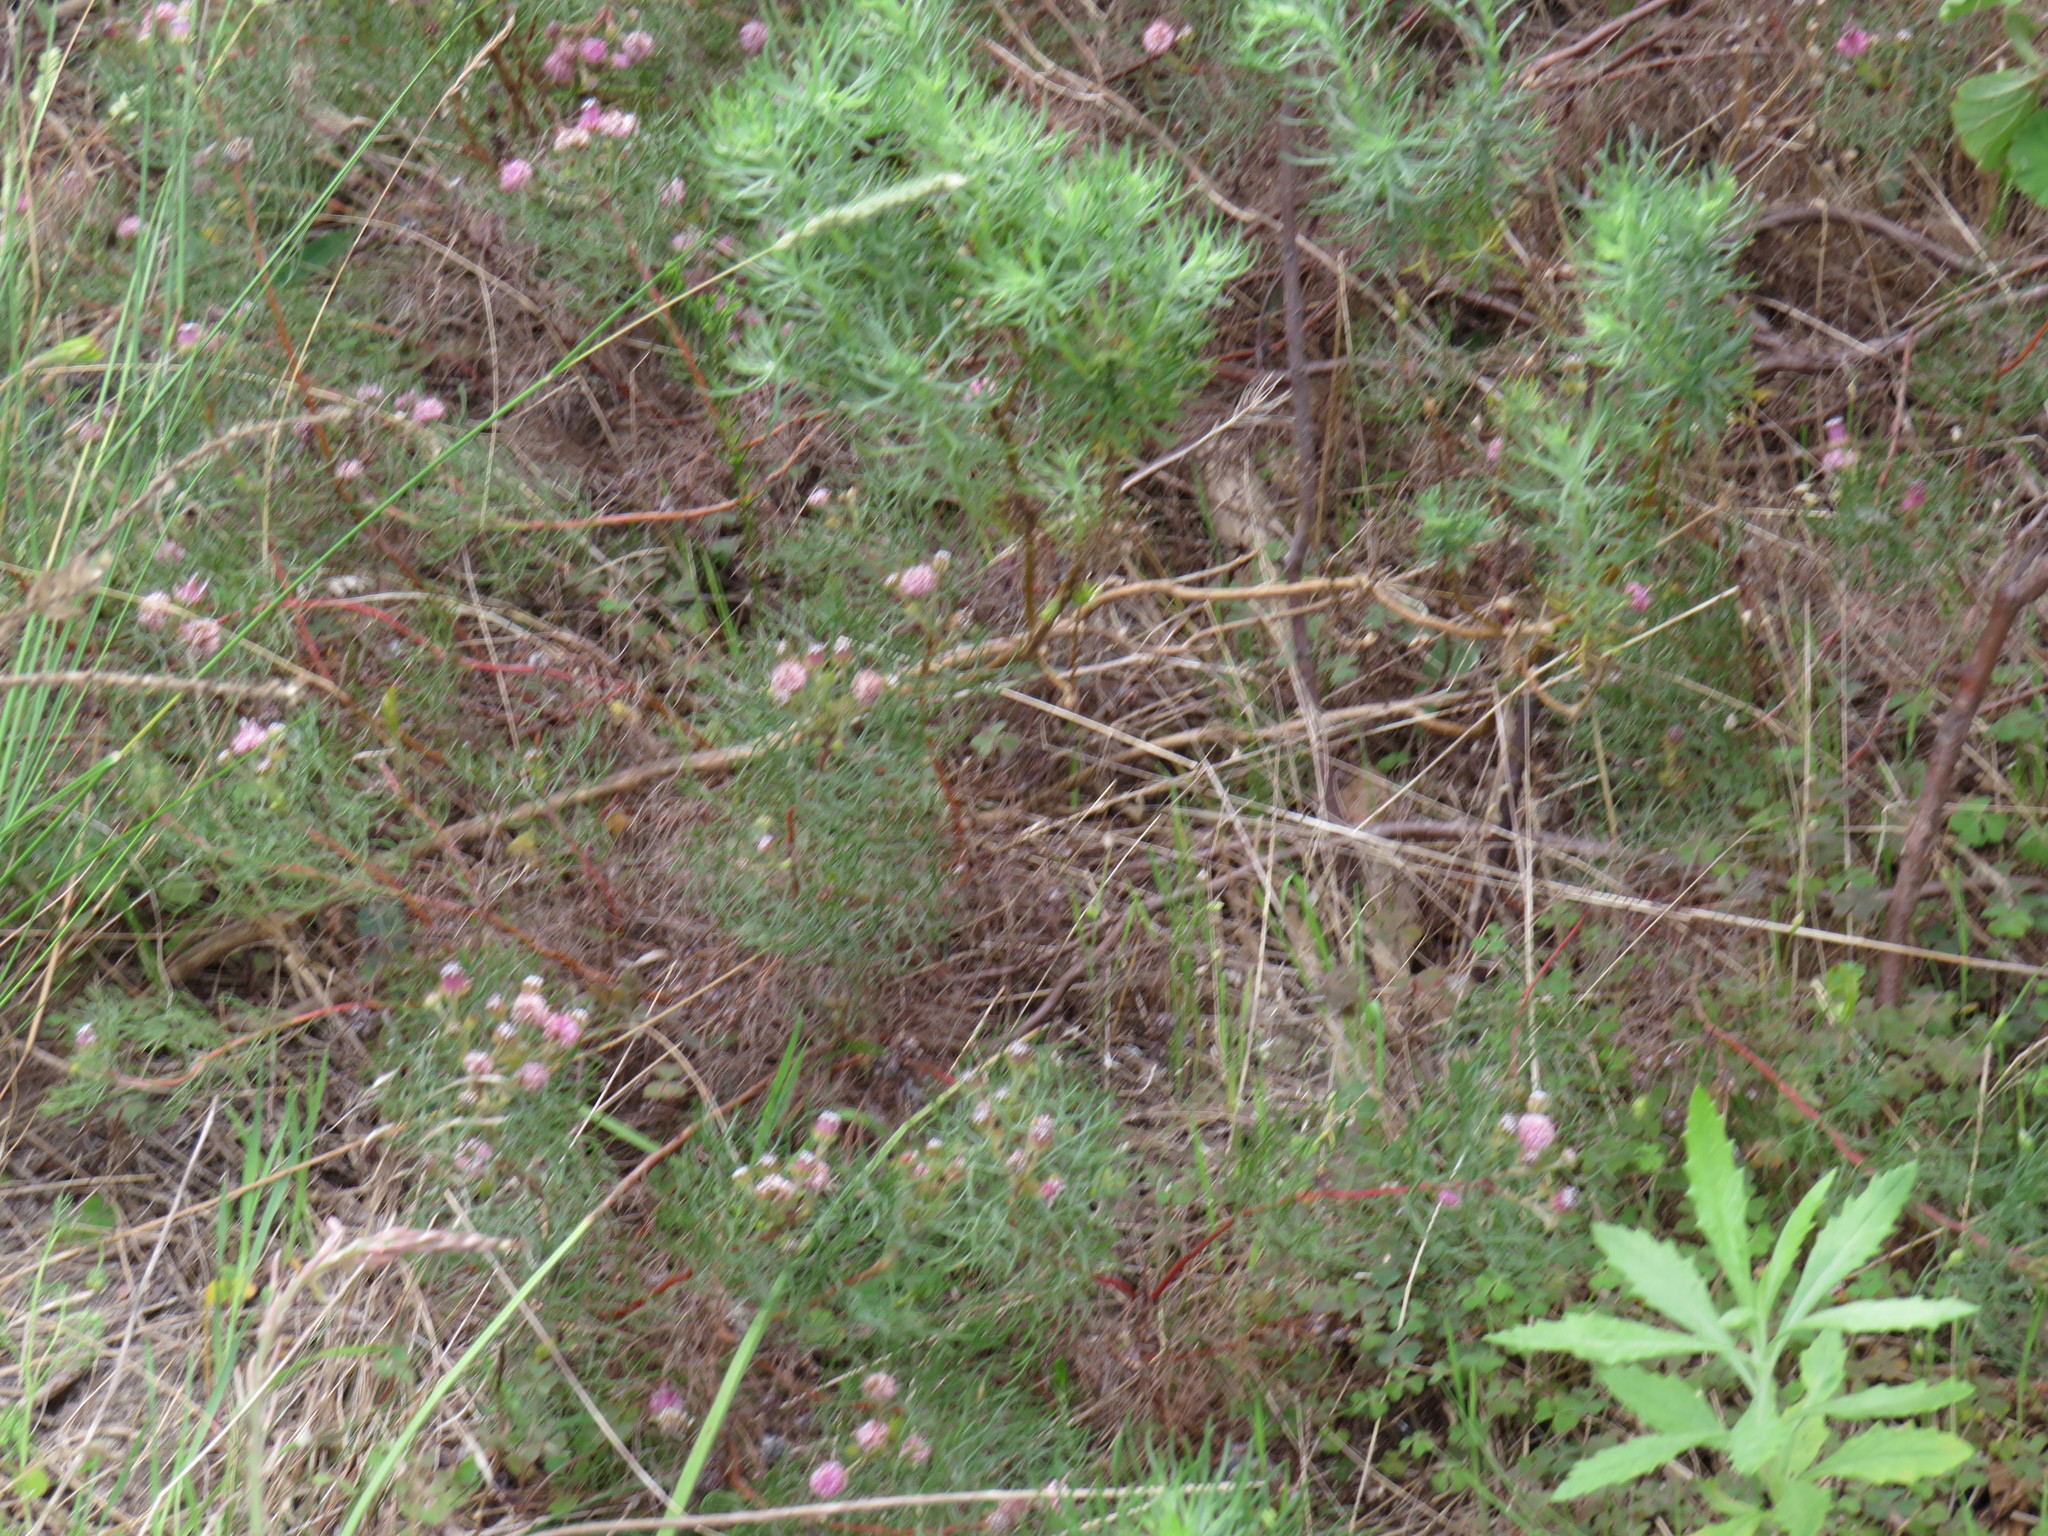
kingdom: Plantae
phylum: Tracheophyta
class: Magnoliopsida
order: Proteales
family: Proteaceae
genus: Serruria
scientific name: Serruria fasciflora
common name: Common pin spiderhead
